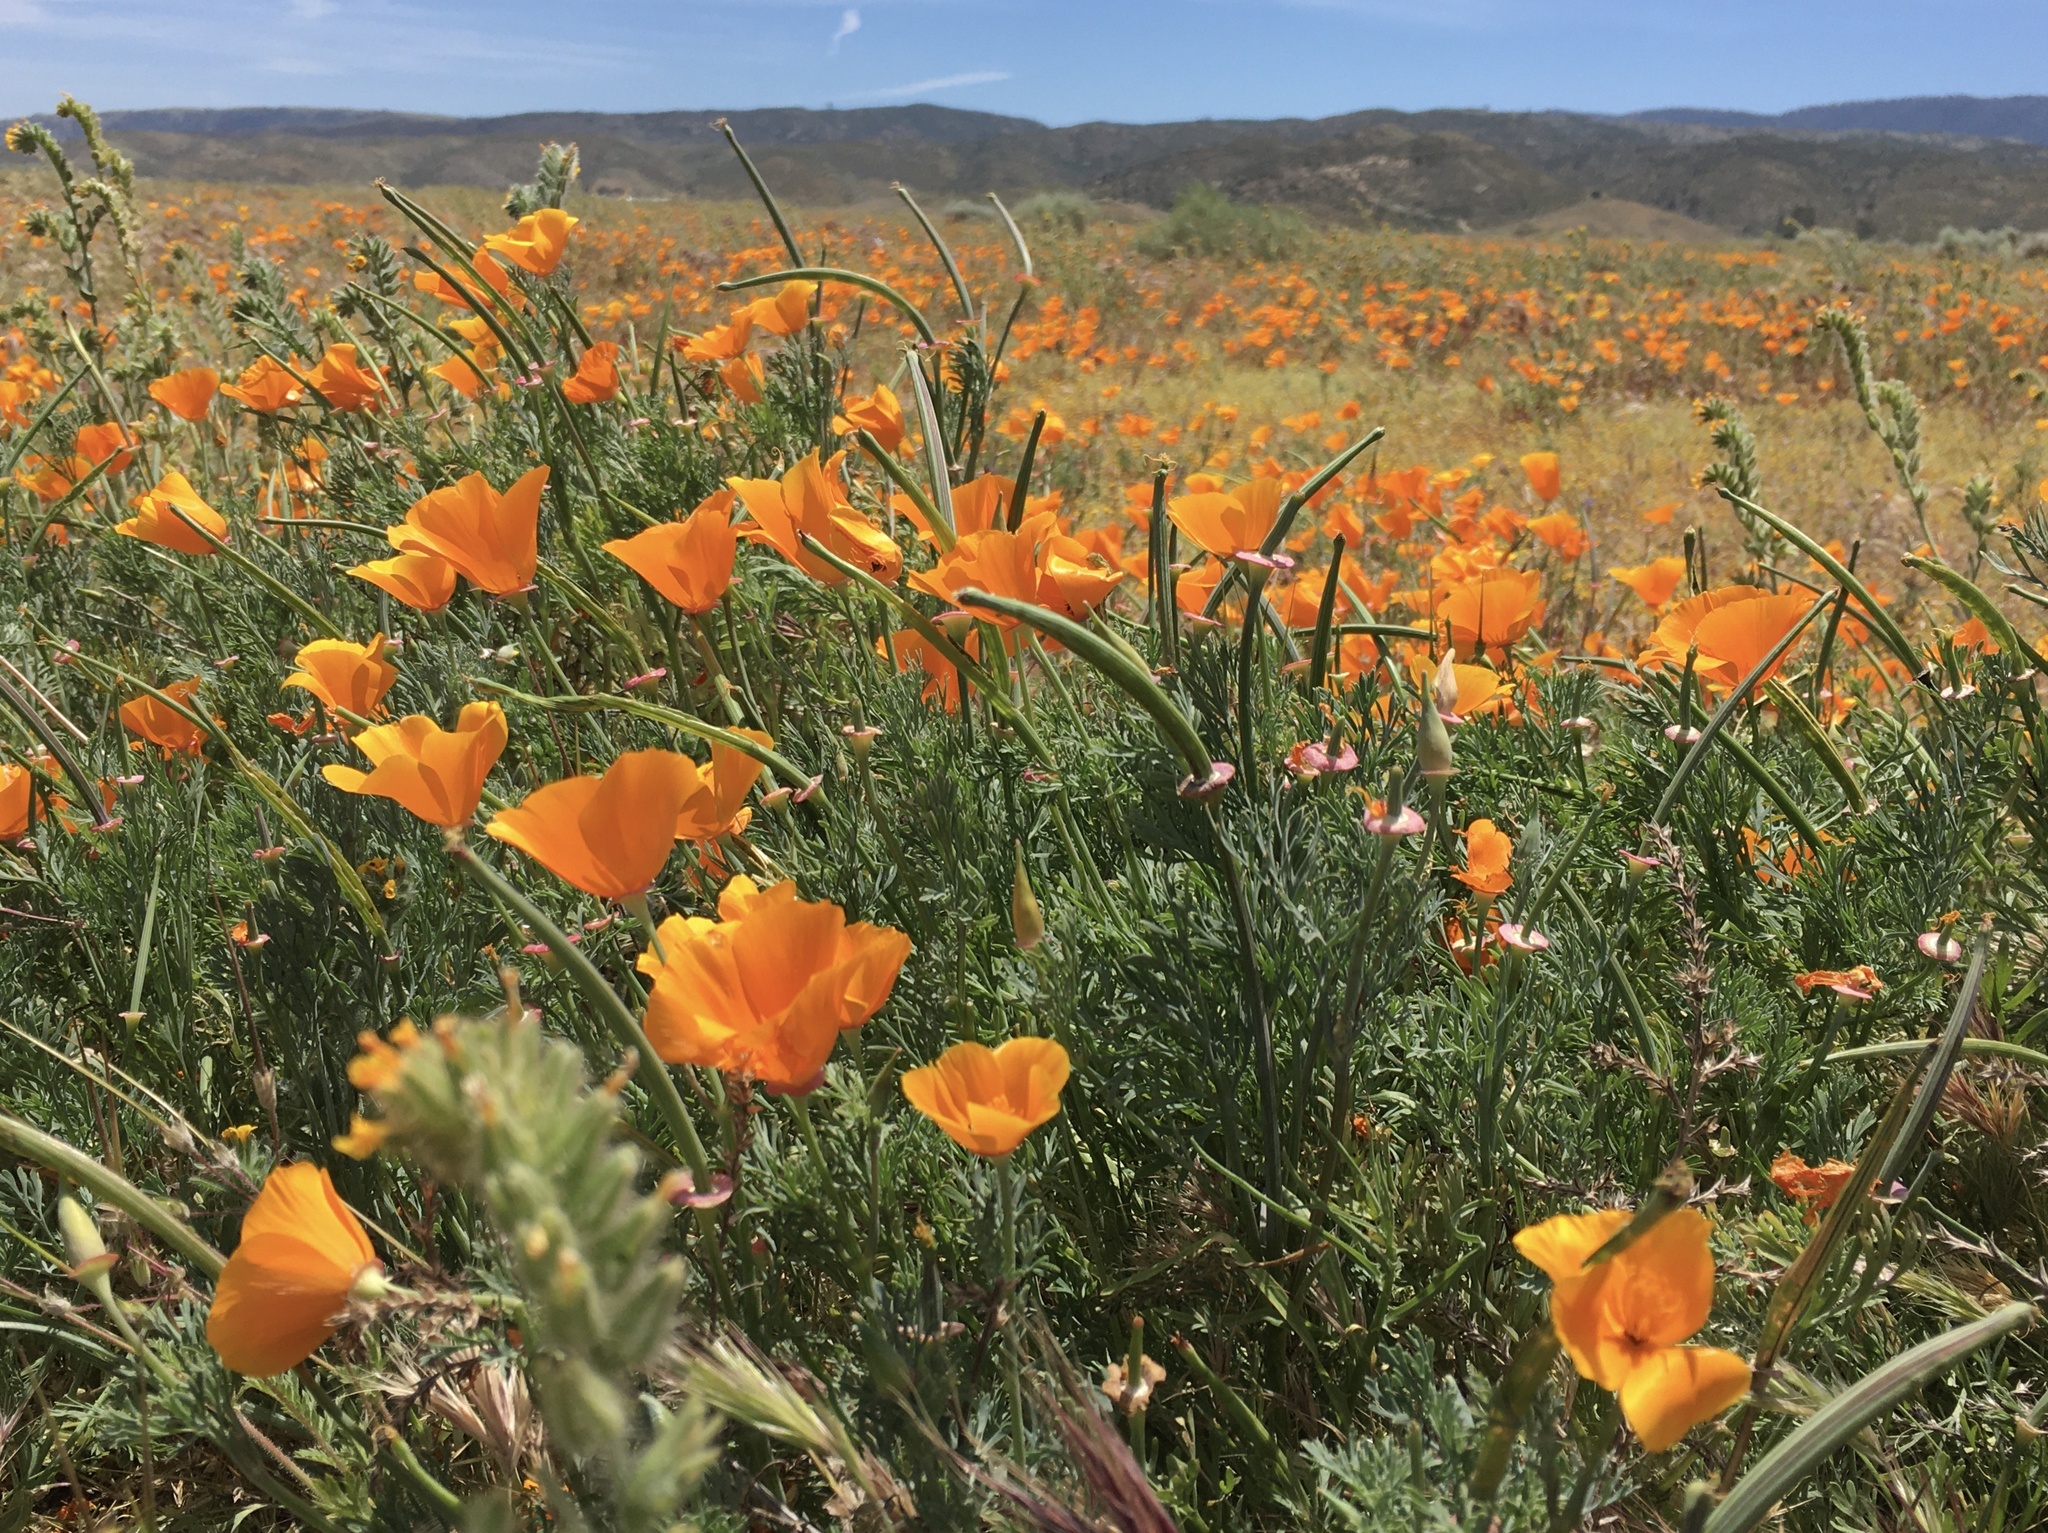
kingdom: Plantae
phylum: Tracheophyta
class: Magnoliopsida
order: Ranunculales
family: Papaveraceae
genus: Eschscholzia
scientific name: Eschscholzia californica
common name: California poppy
